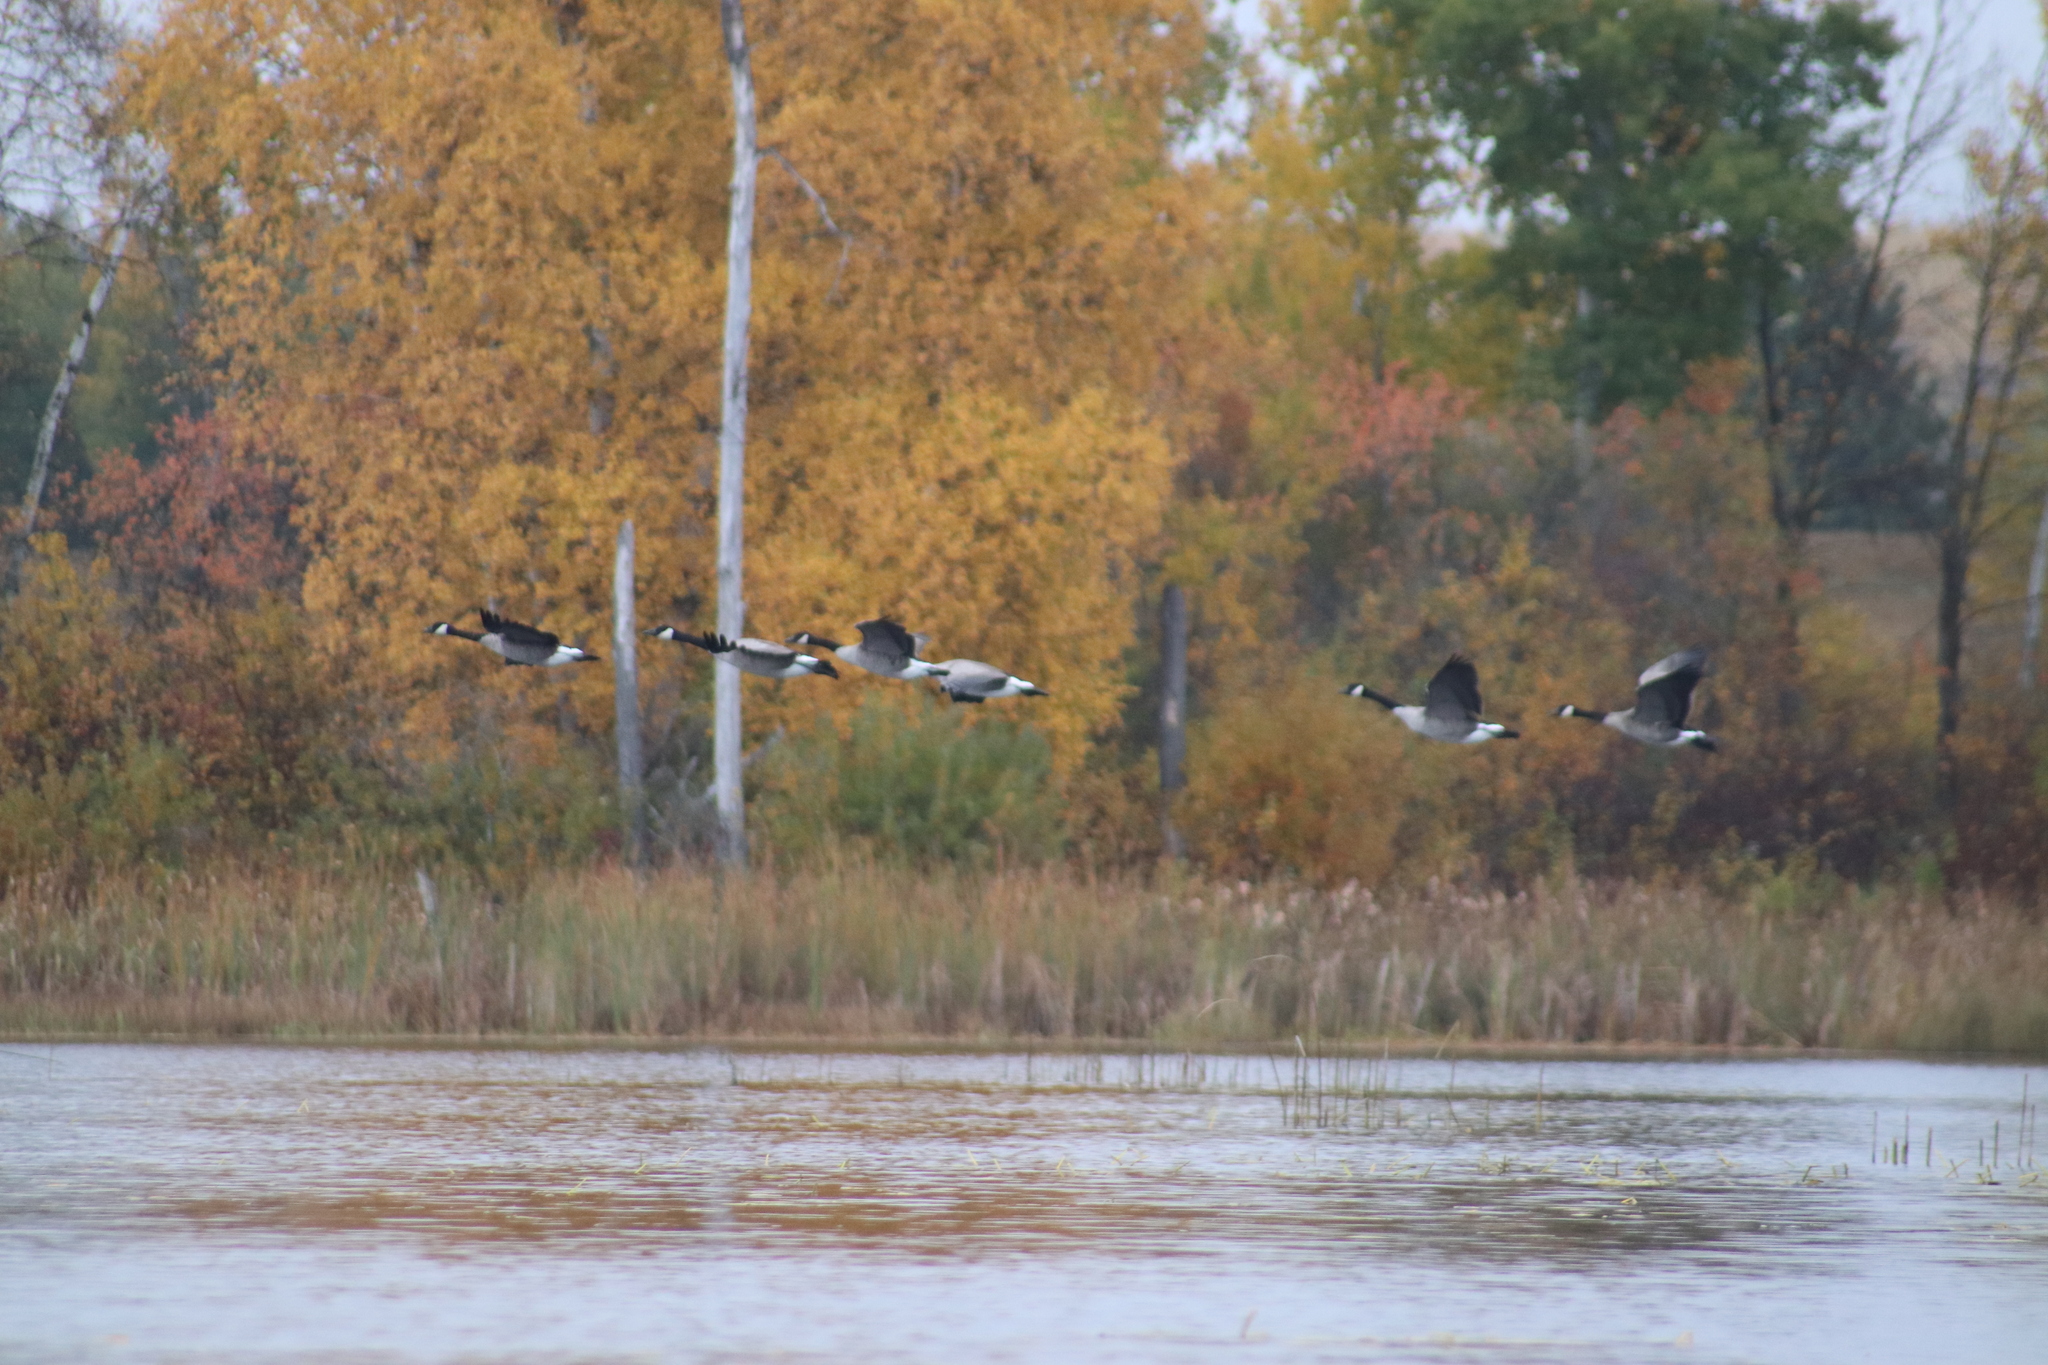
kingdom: Animalia
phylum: Chordata
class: Aves
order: Anseriformes
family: Anatidae
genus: Branta
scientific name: Branta canadensis
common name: Canada goose
